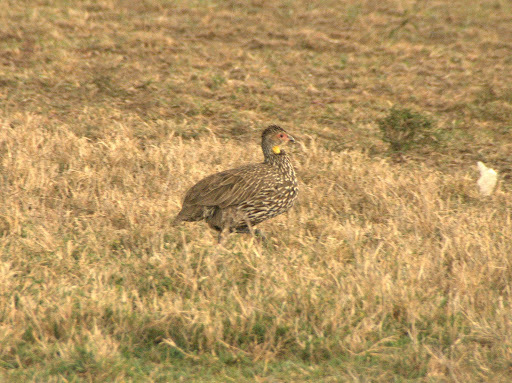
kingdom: Animalia
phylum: Chordata
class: Aves
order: Galliformes
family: Phasianidae
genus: Pternistis
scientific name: Pternistis leucoscepus
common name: Yellow-necked spurfowl
